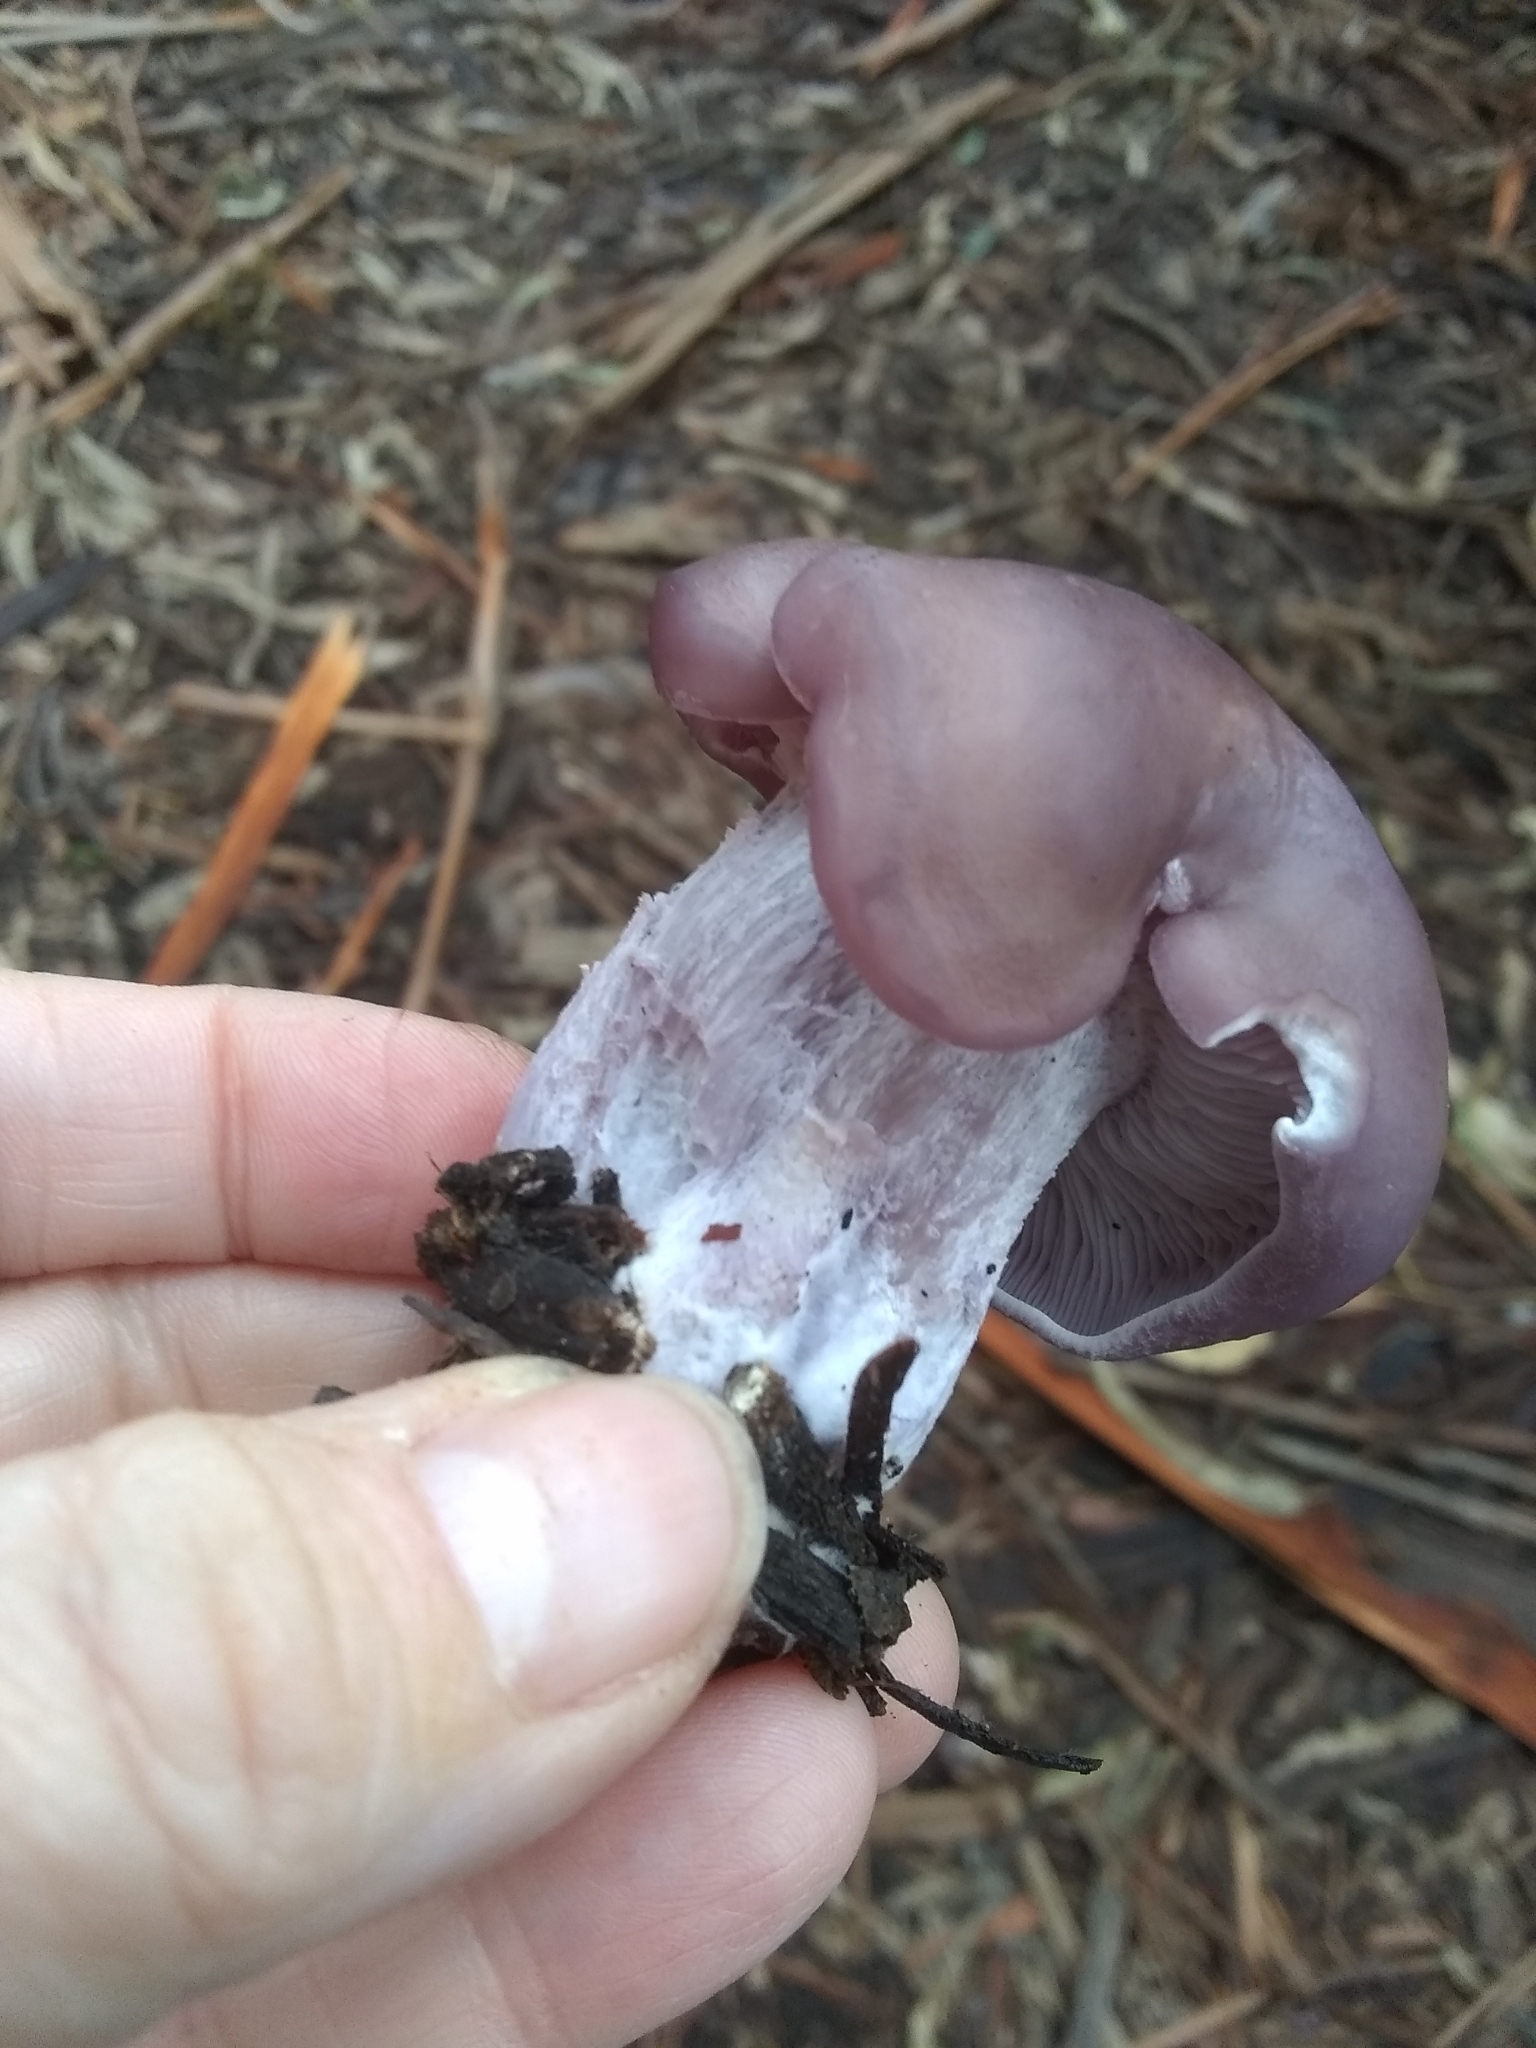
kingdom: Fungi
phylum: Basidiomycota
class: Agaricomycetes
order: Agaricales
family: Tricholomataceae
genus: Collybia
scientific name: Collybia
